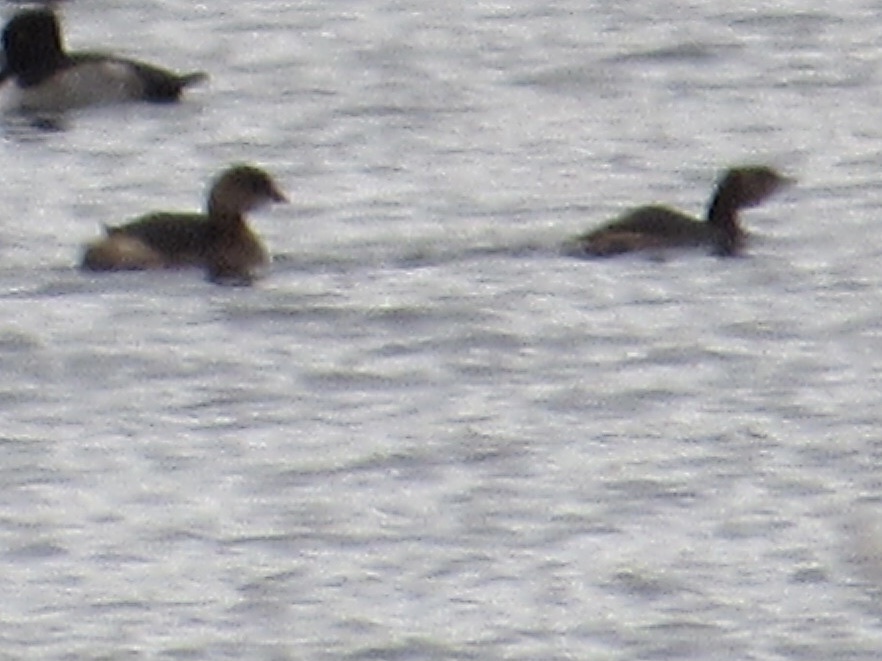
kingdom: Animalia
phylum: Chordata
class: Aves
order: Podicipediformes
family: Podicipedidae
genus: Podilymbus
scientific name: Podilymbus podiceps
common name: Pied-billed grebe
